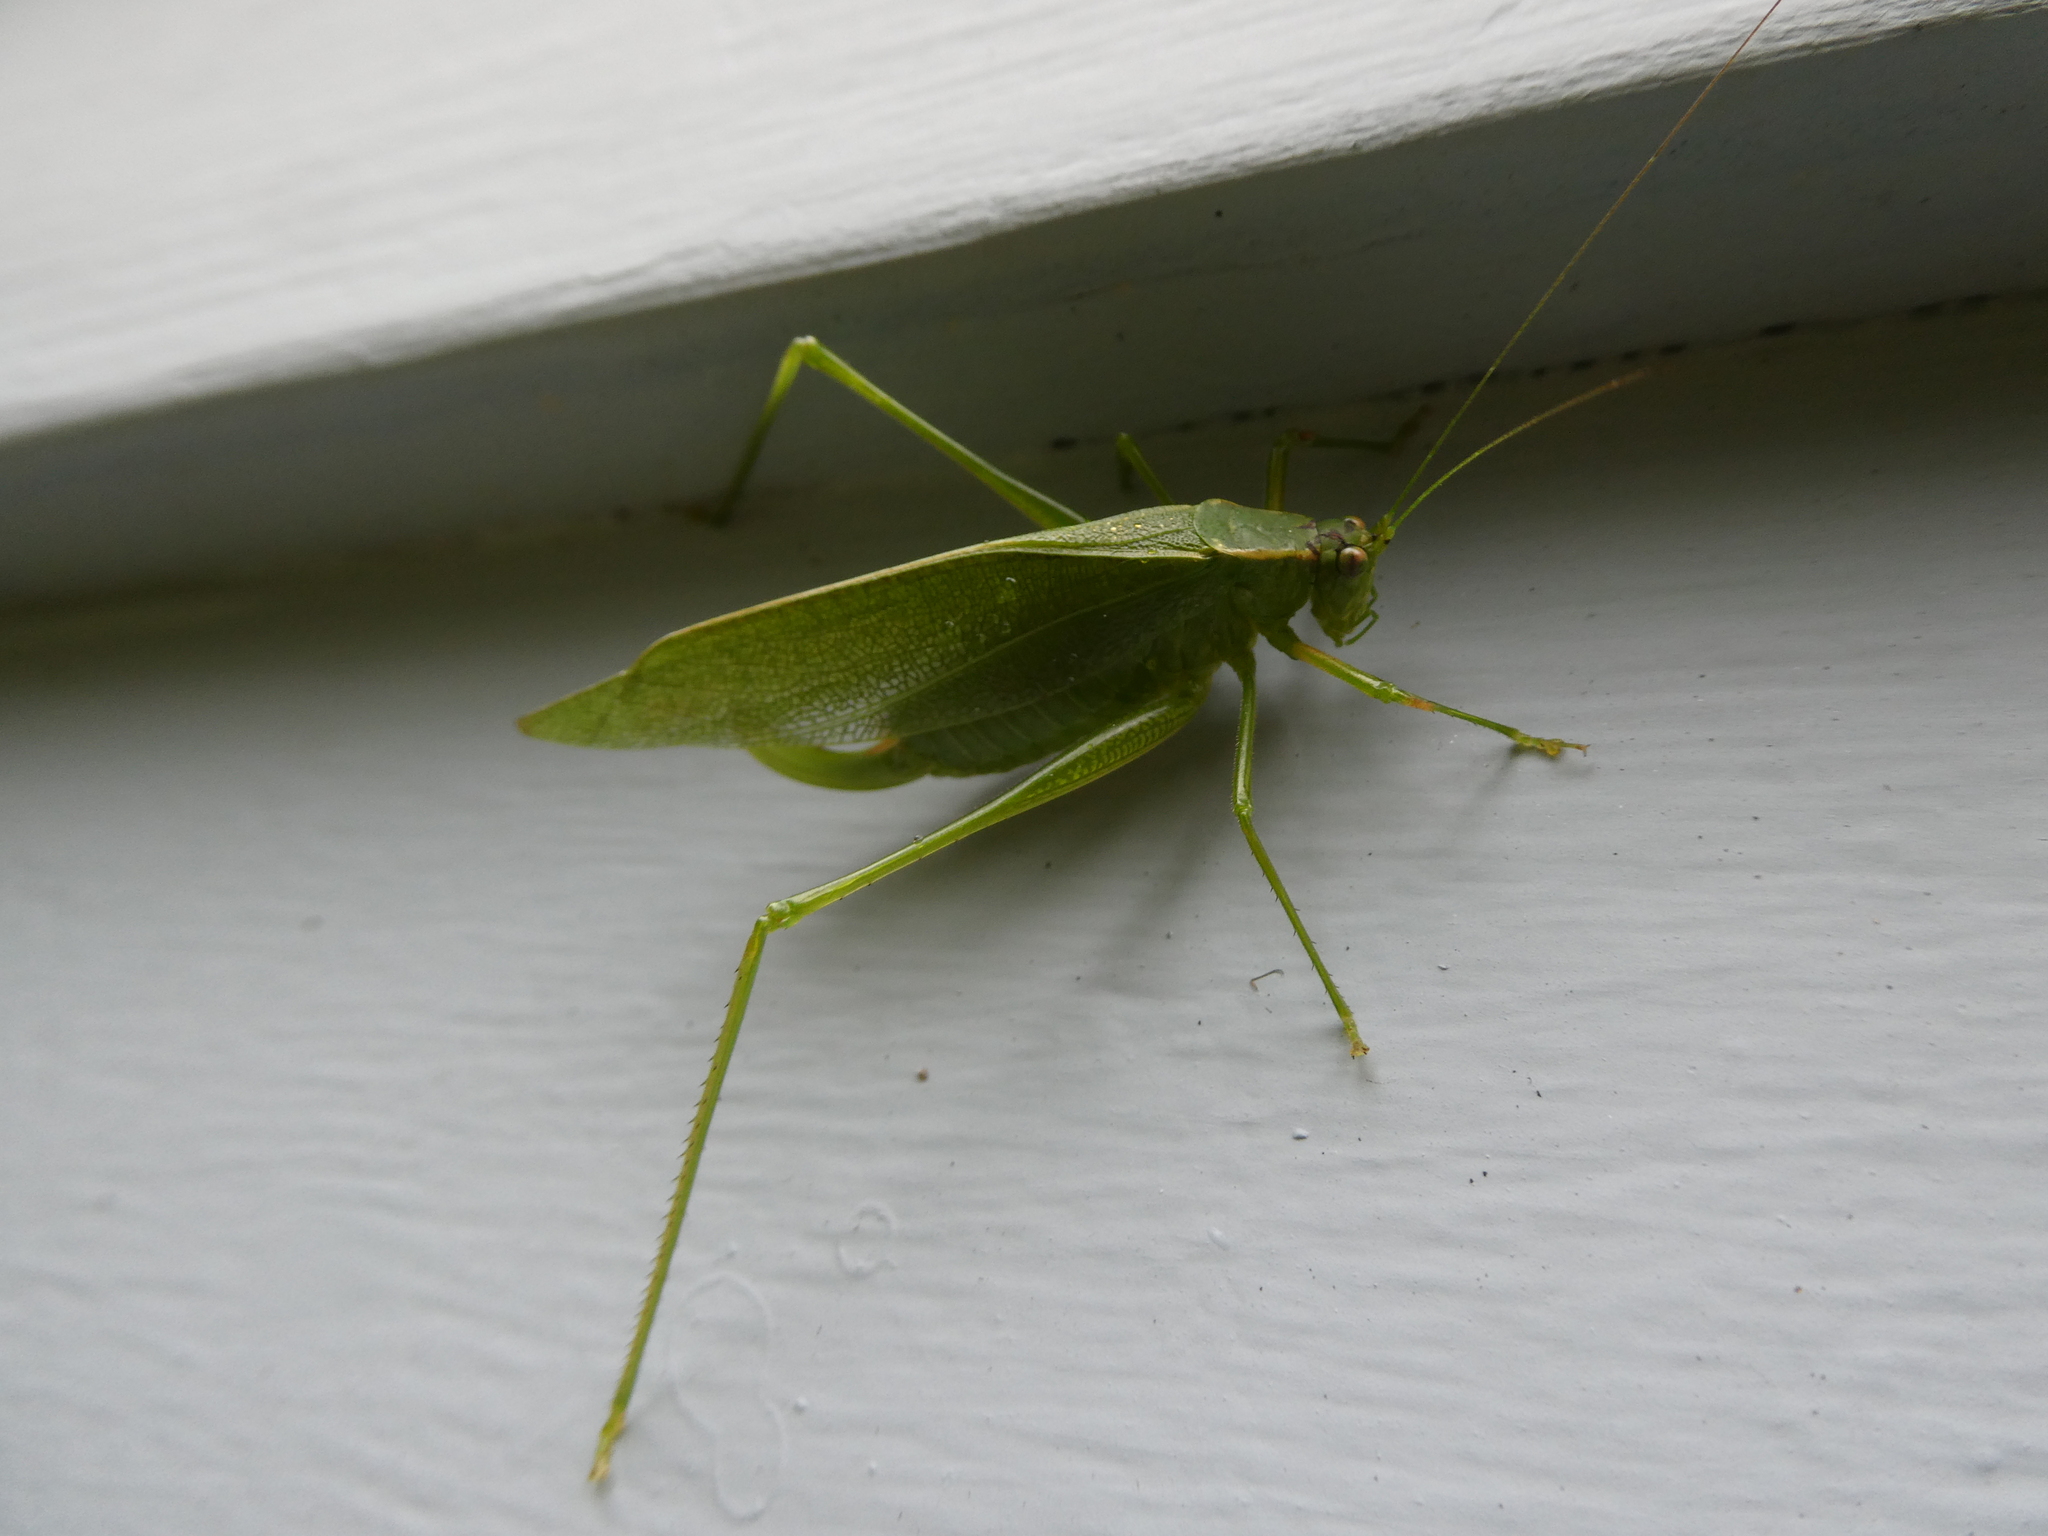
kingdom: Animalia
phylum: Arthropoda
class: Insecta
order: Orthoptera
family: Tettigoniidae
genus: Scudderia
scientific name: Scudderia septentrionalis
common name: Northern bush-katydid
